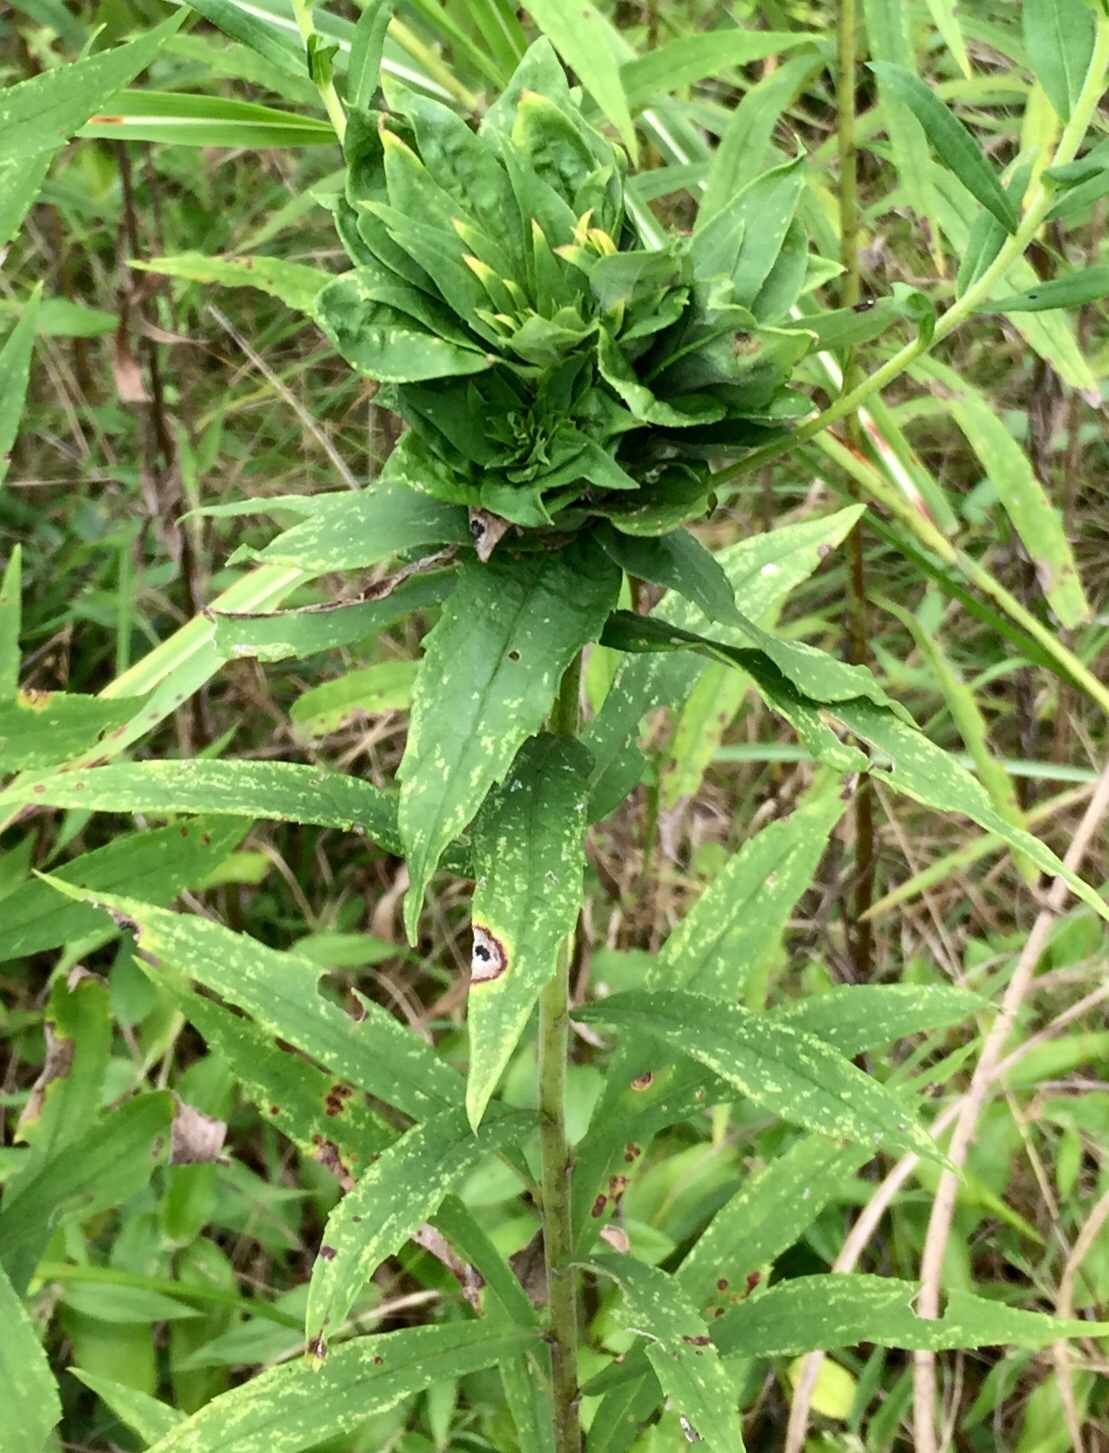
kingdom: Animalia
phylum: Arthropoda
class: Insecta
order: Diptera
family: Cecidomyiidae
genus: Rhopalomyia
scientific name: Rhopalomyia solidaginis
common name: Goldenrod bunch gall midge
